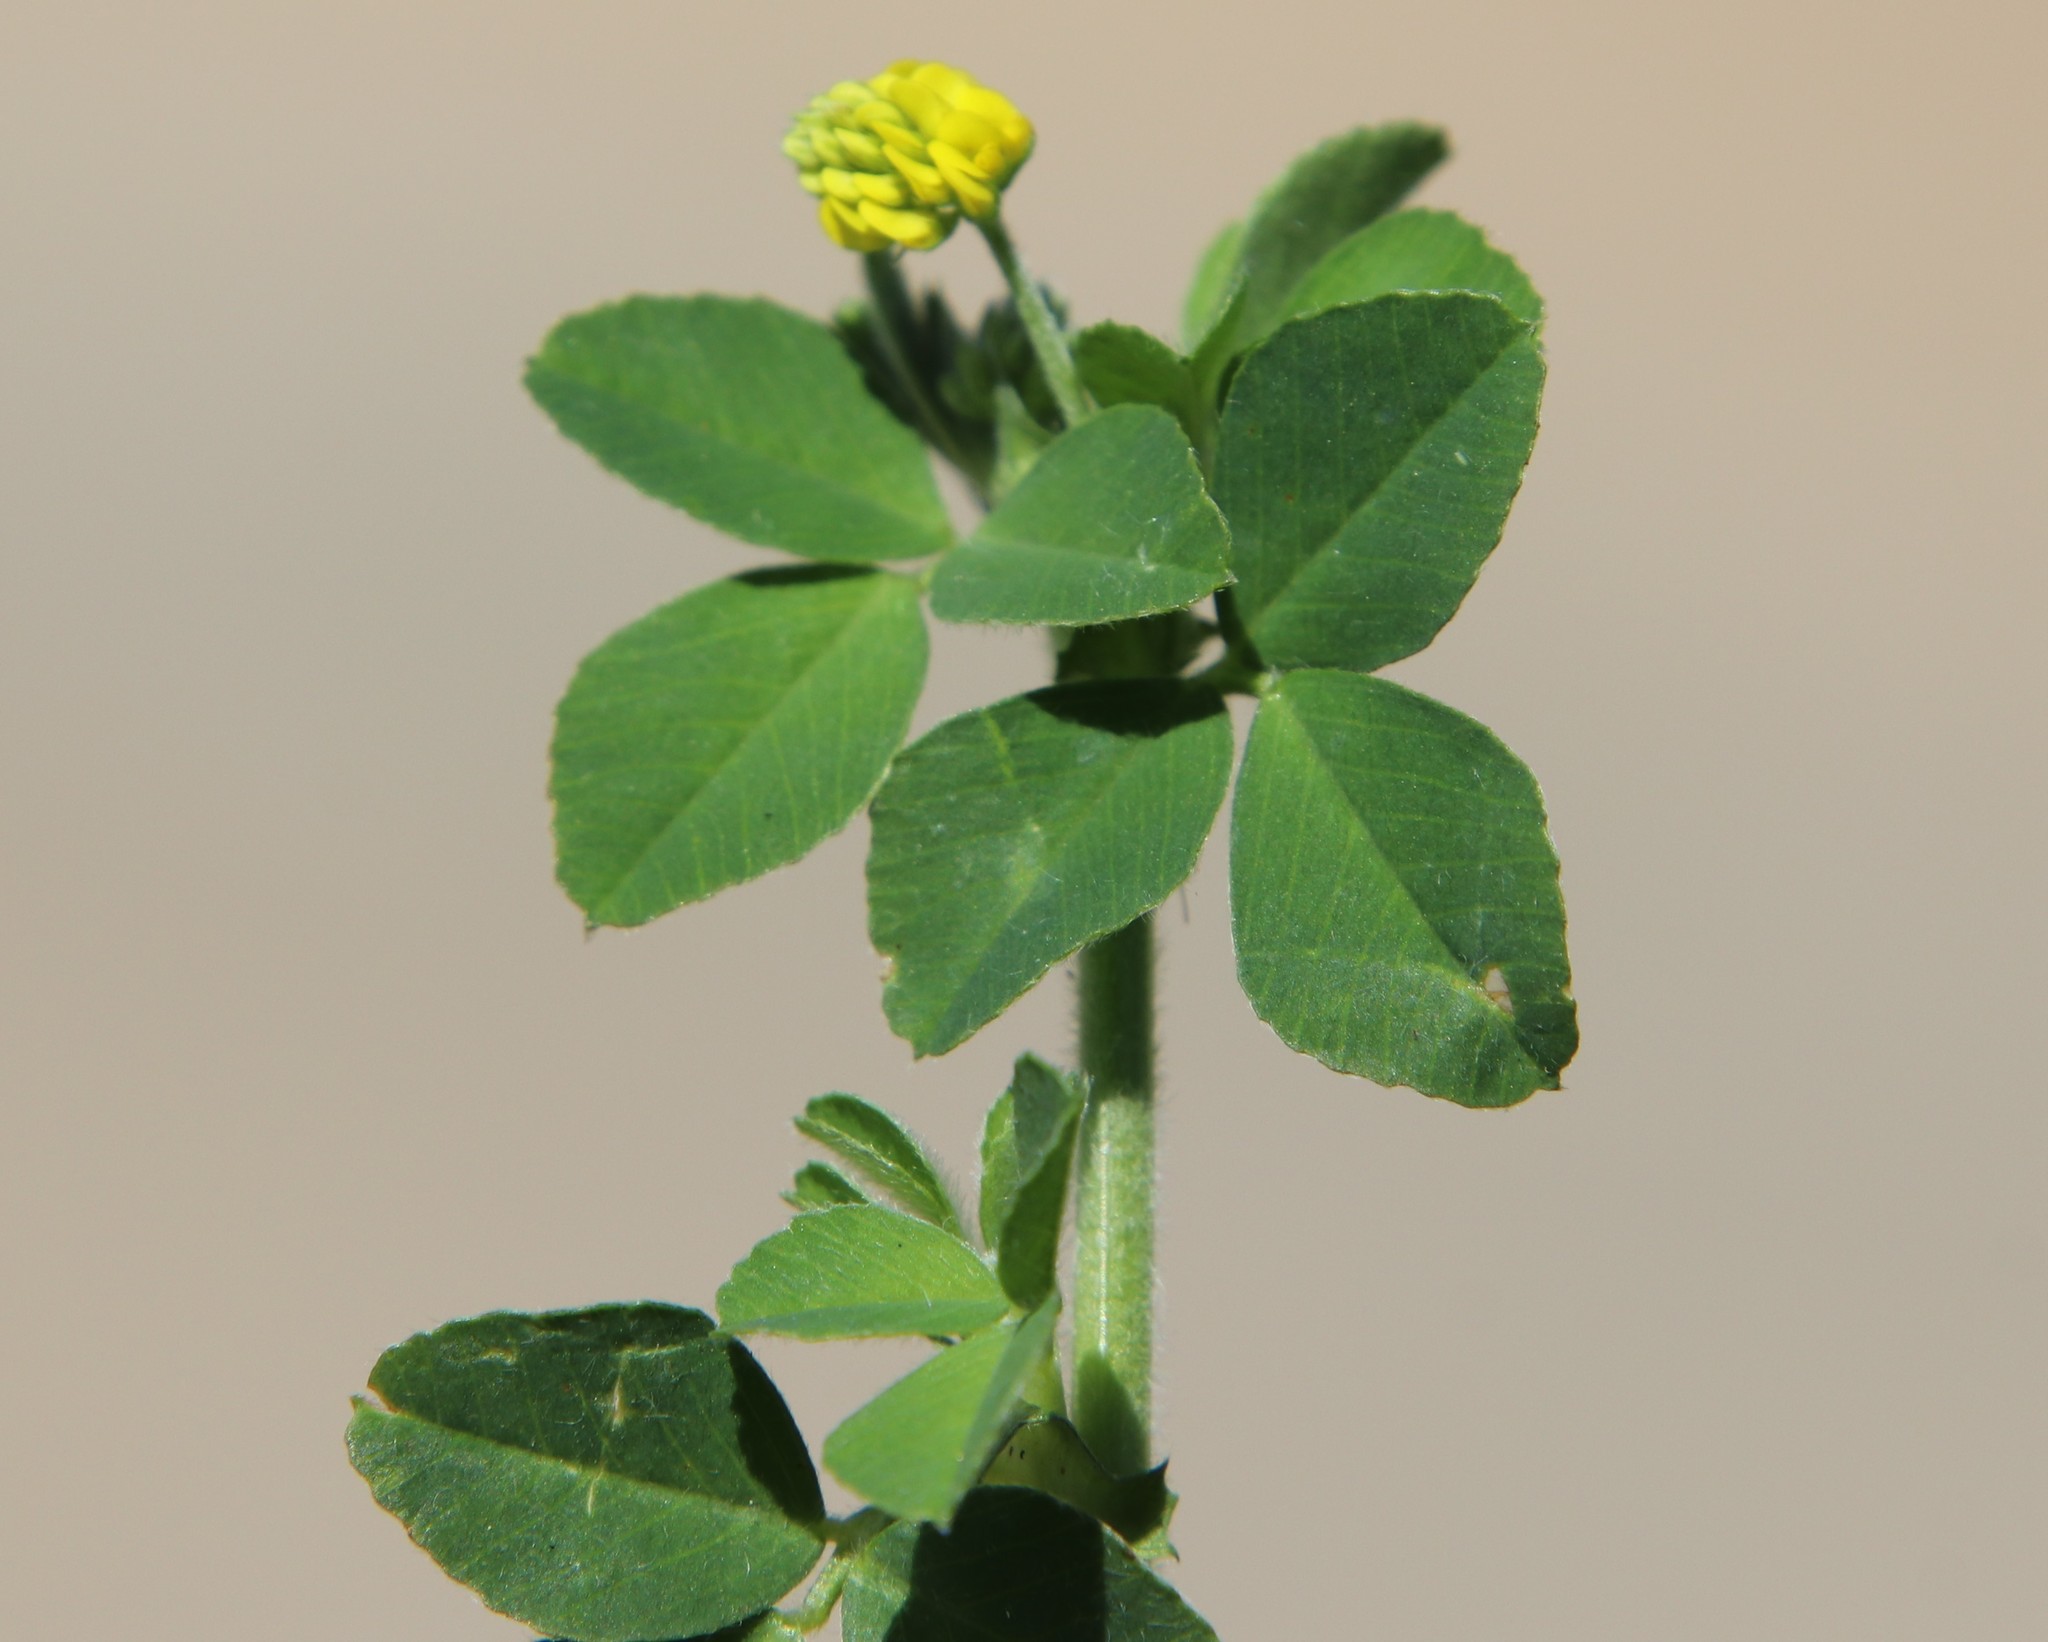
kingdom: Plantae
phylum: Tracheophyta
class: Magnoliopsida
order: Fabales
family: Fabaceae
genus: Medicago
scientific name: Medicago lupulina
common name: Black medick
